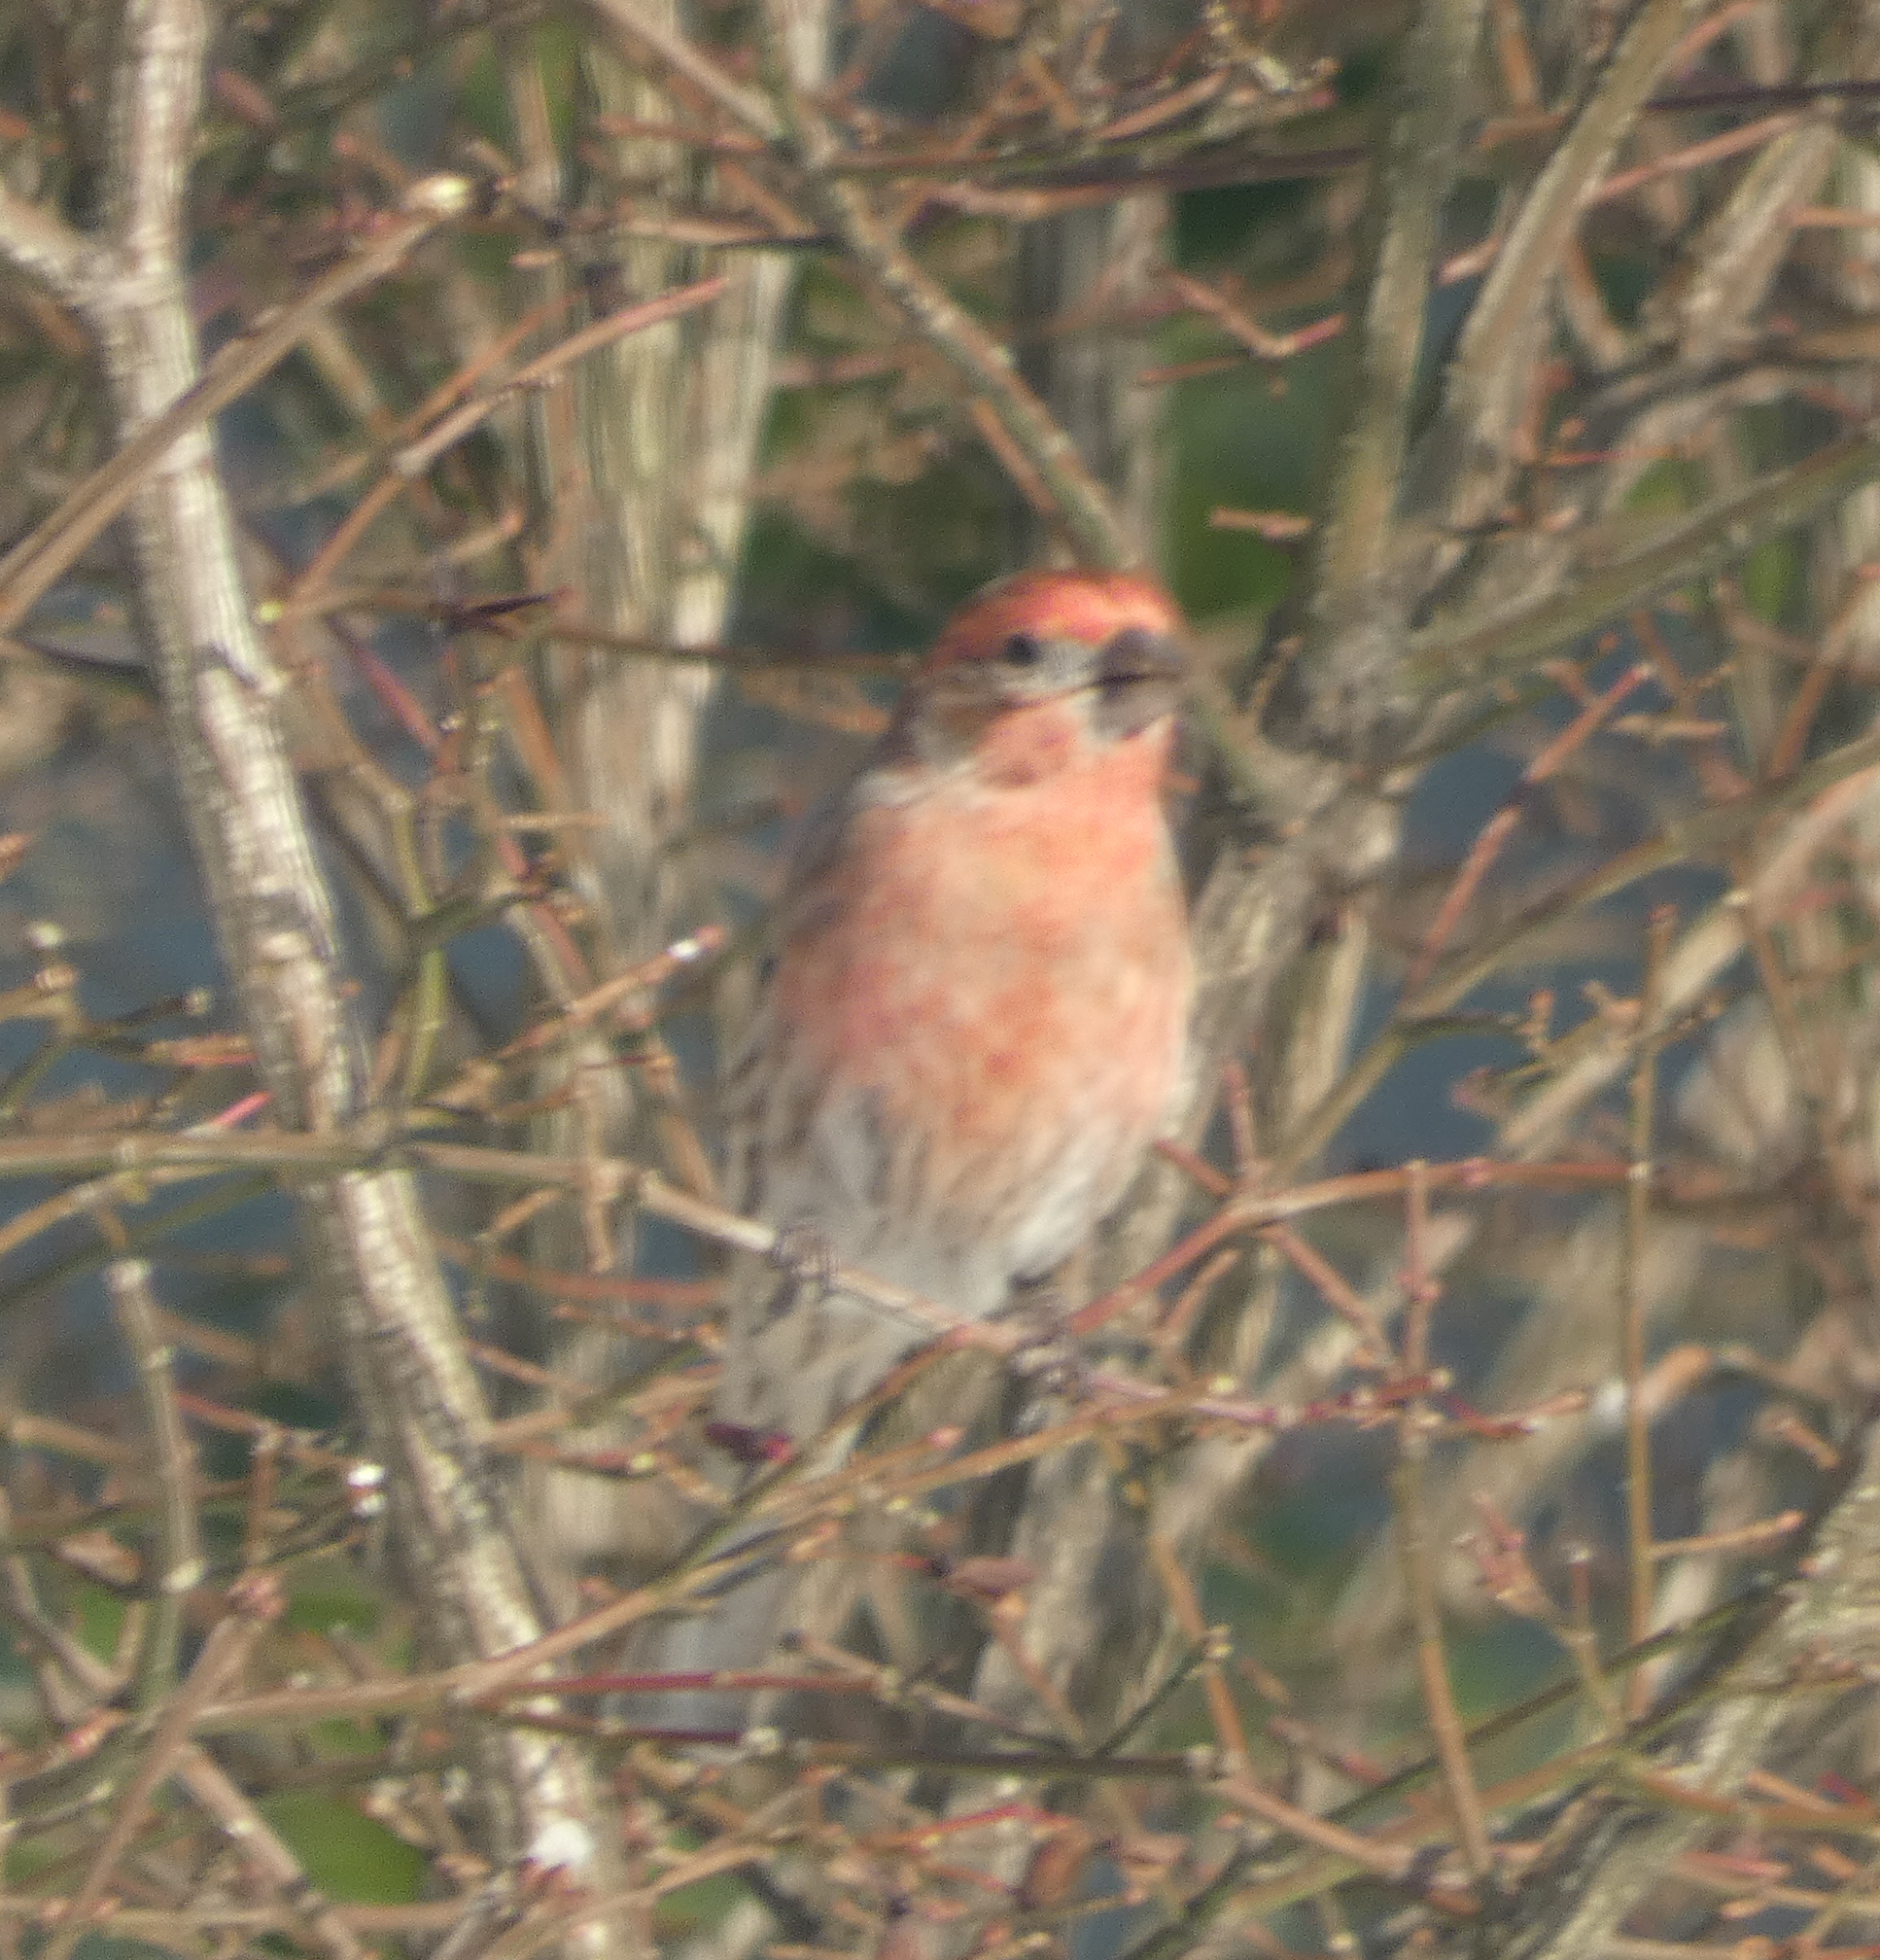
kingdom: Animalia
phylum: Chordata
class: Aves
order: Passeriformes
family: Fringillidae
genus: Haemorhous
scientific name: Haemorhous mexicanus
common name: House finch
